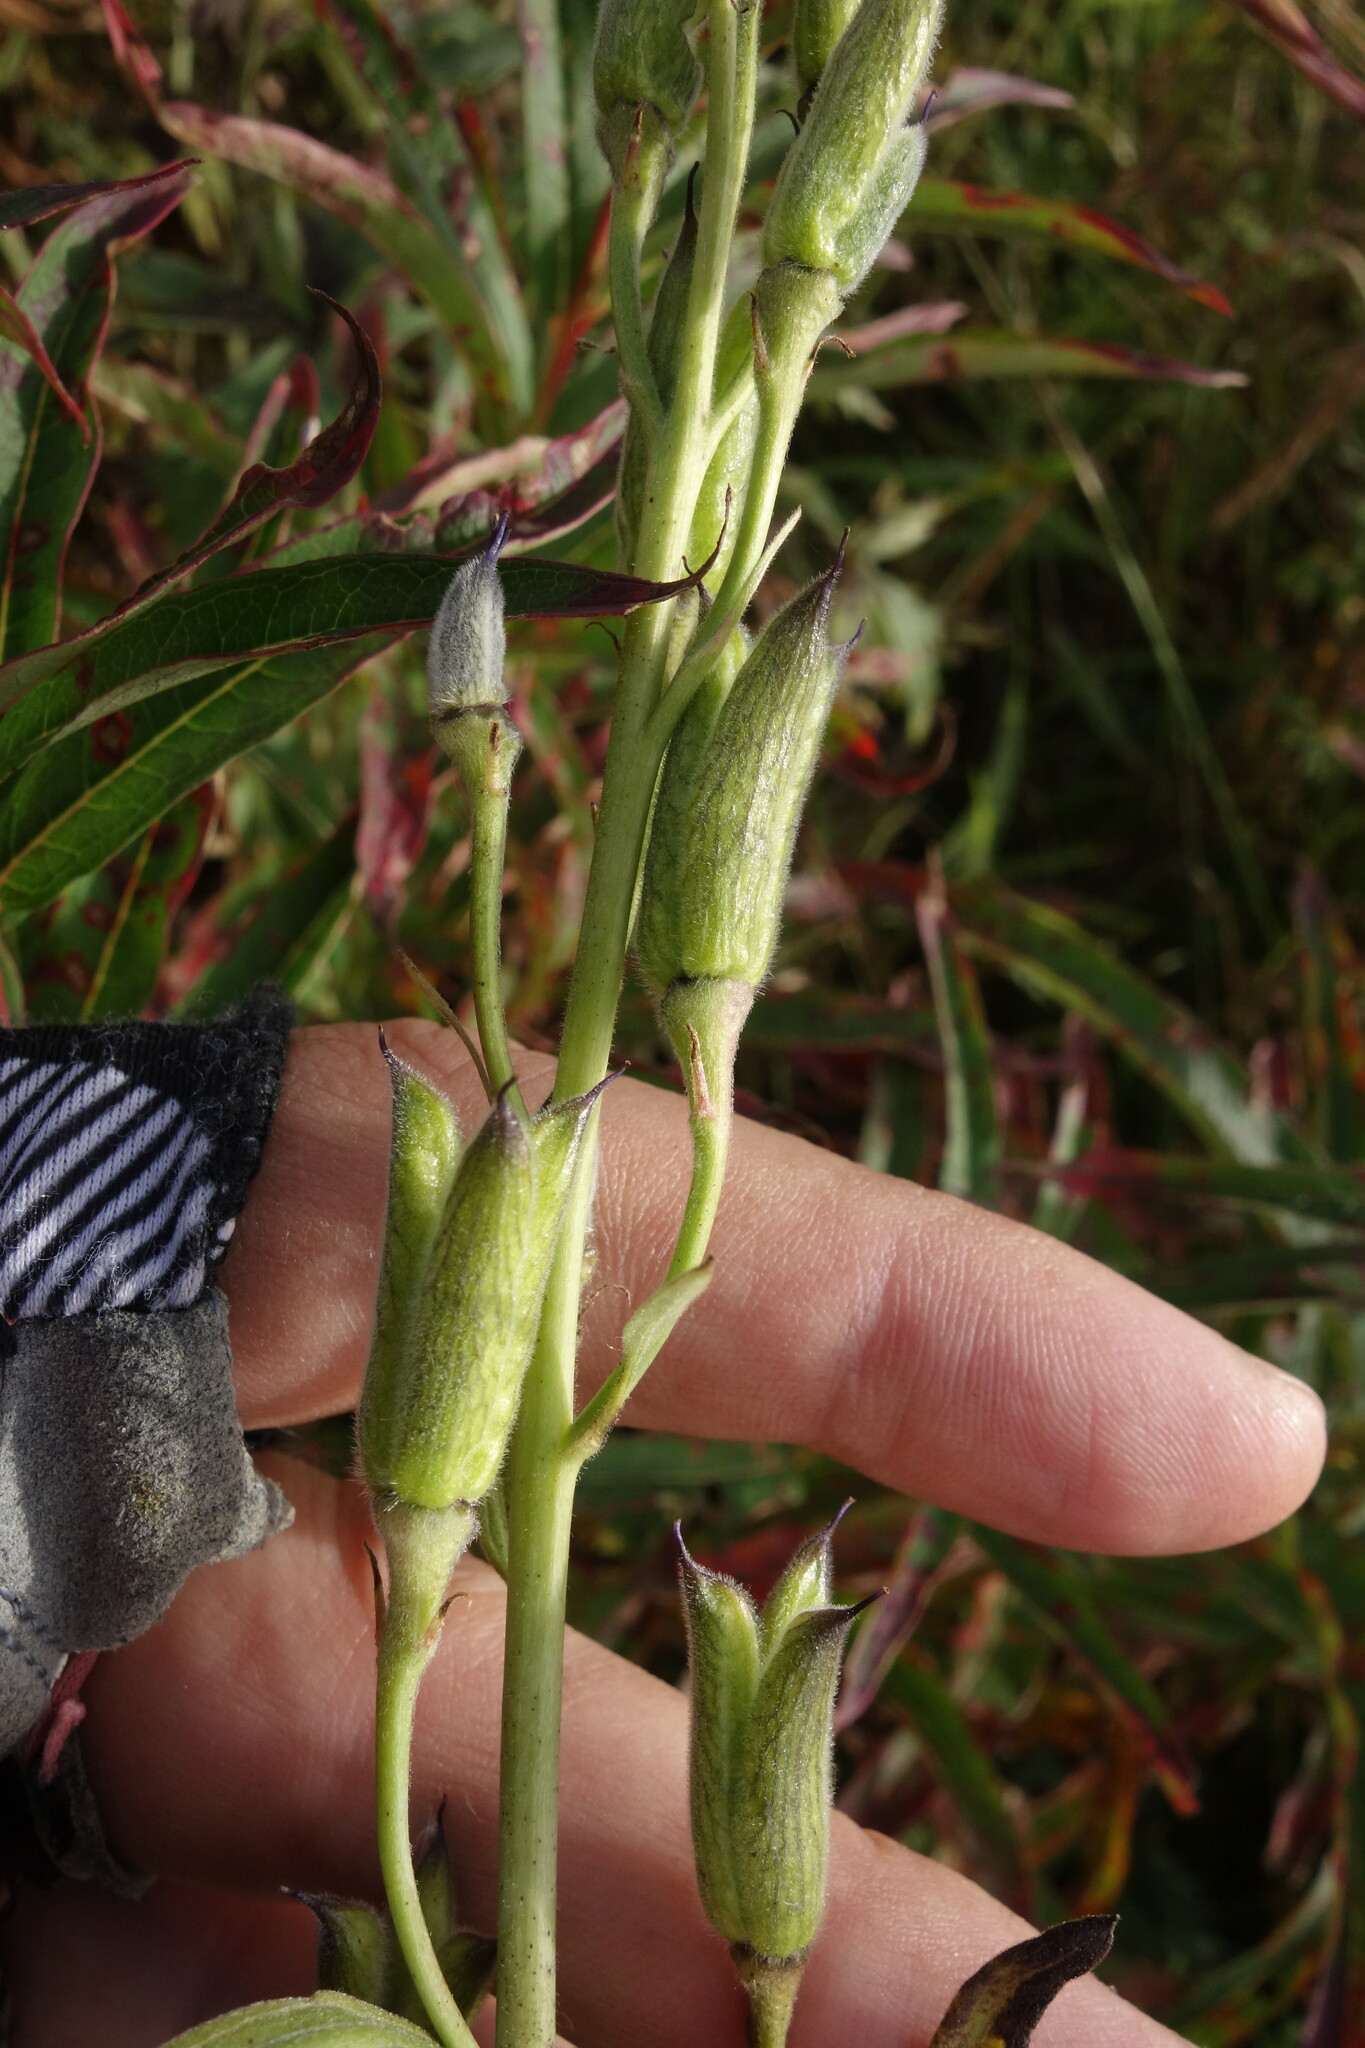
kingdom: Plantae
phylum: Tracheophyta
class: Magnoliopsida
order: Ranunculales
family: Ranunculaceae
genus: Delphinium
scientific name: Delphinium cheilanthum
